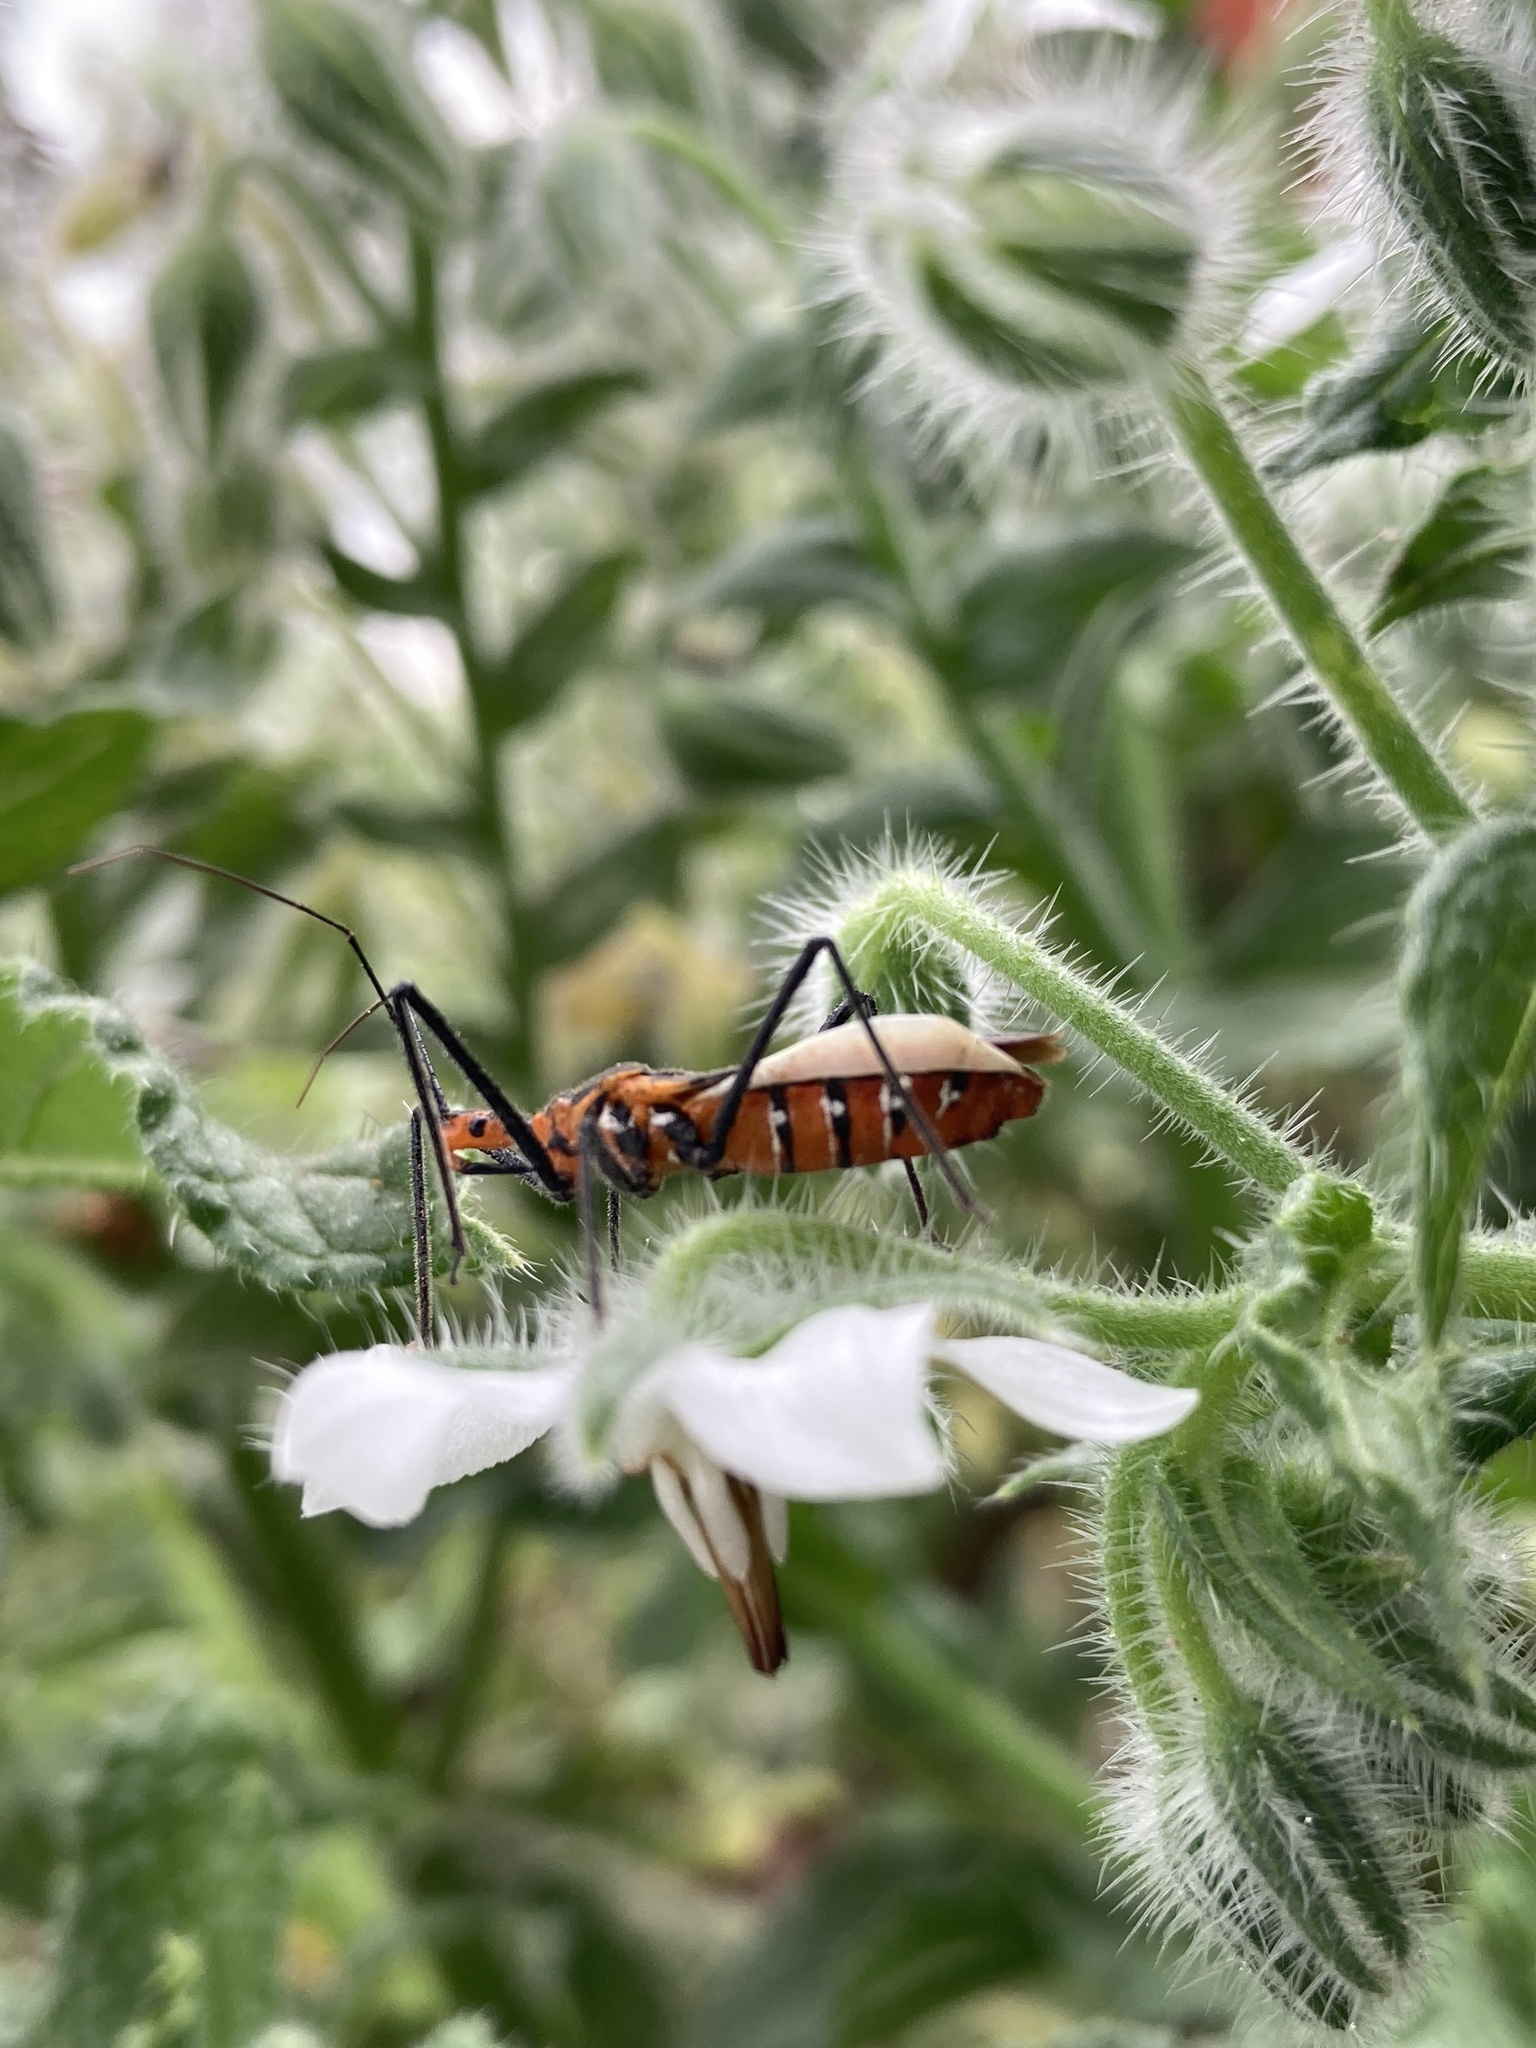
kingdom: Animalia
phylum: Arthropoda
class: Insecta
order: Hemiptera
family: Reduviidae
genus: Zelus
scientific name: Zelus longipes
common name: Milkweed assassin bug
